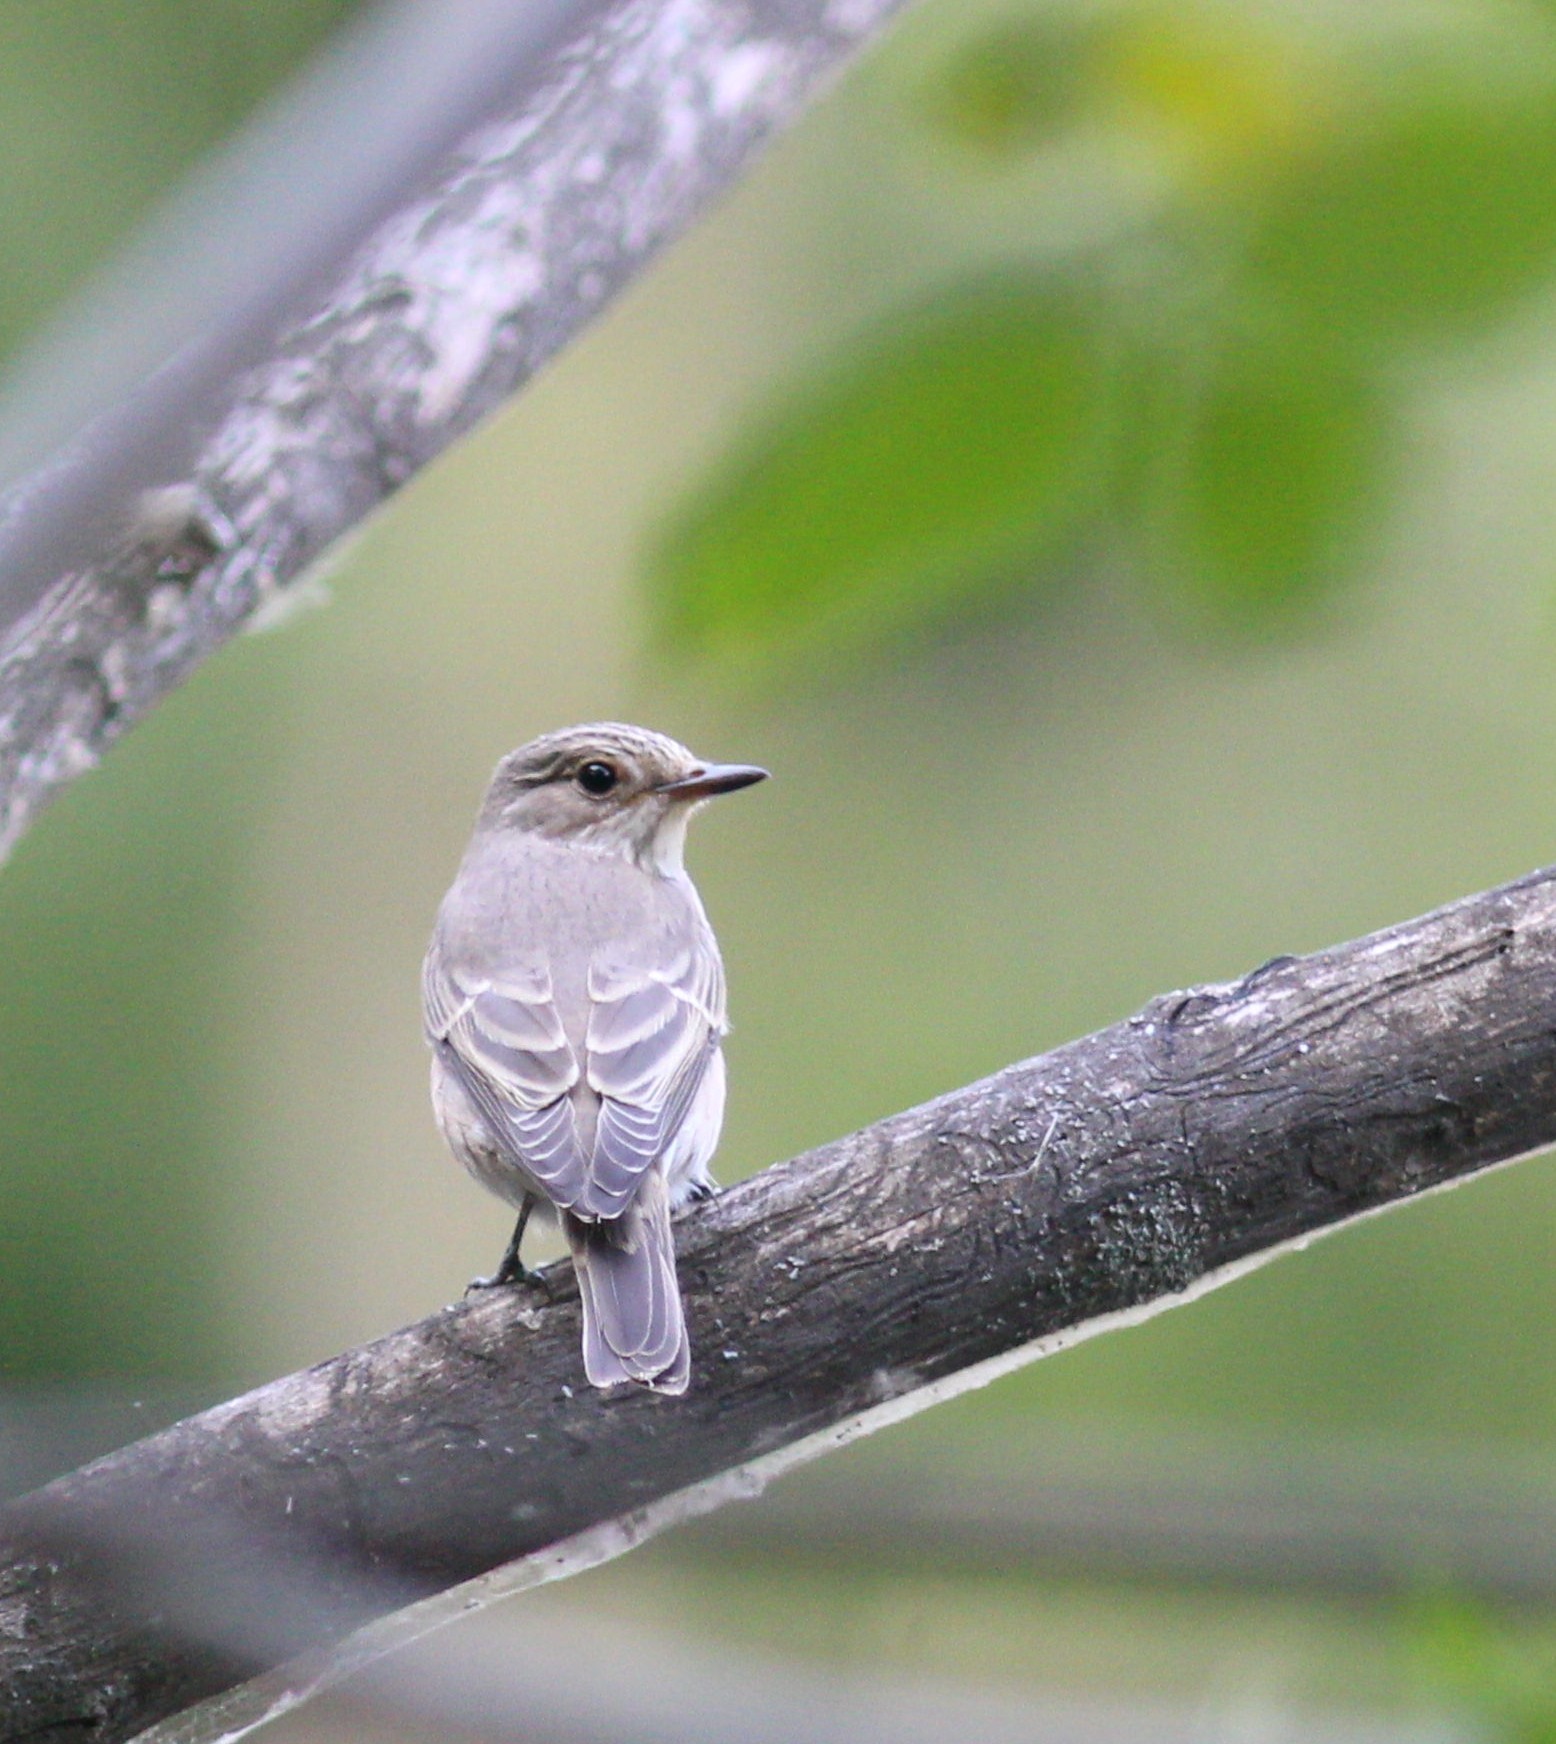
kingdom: Animalia
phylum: Chordata
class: Aves
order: Passeriformes
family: Muscicapidae
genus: Muscicapa
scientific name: Muscicapa striata
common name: Spotted flycatcher
